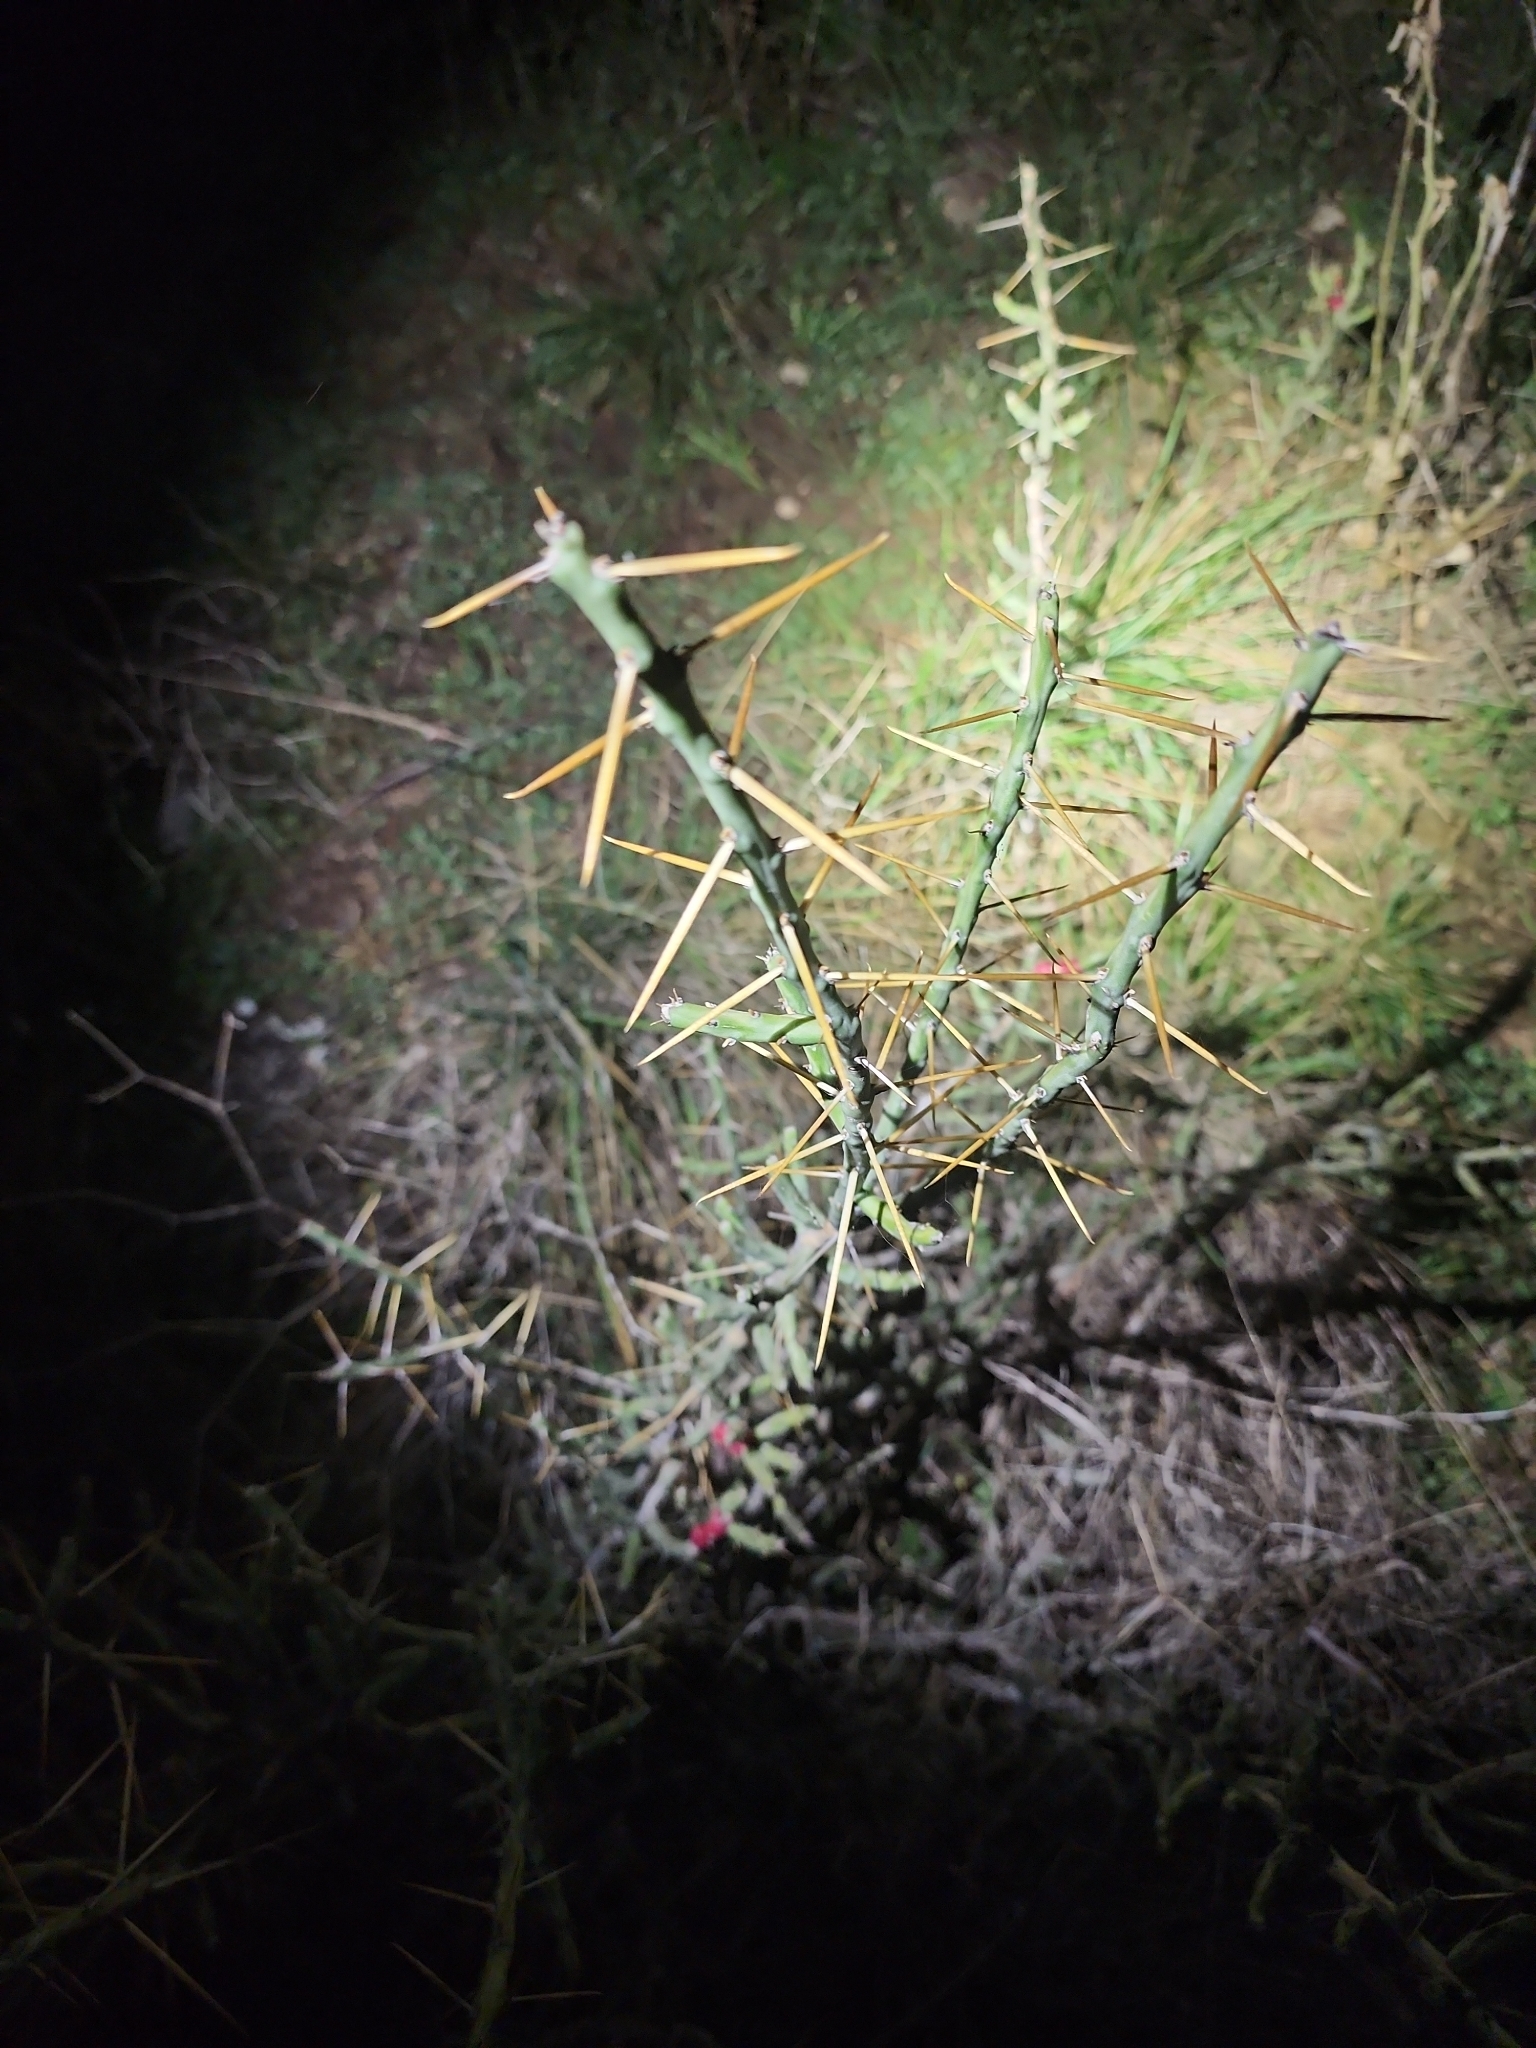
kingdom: Plantae
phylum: Tracheophyta
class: Magnoliopsida
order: Caryophyllales
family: Cactaceae
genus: Cylindropuntia
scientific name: Cylindropuntia leptocaulis
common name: Christmas cactus
